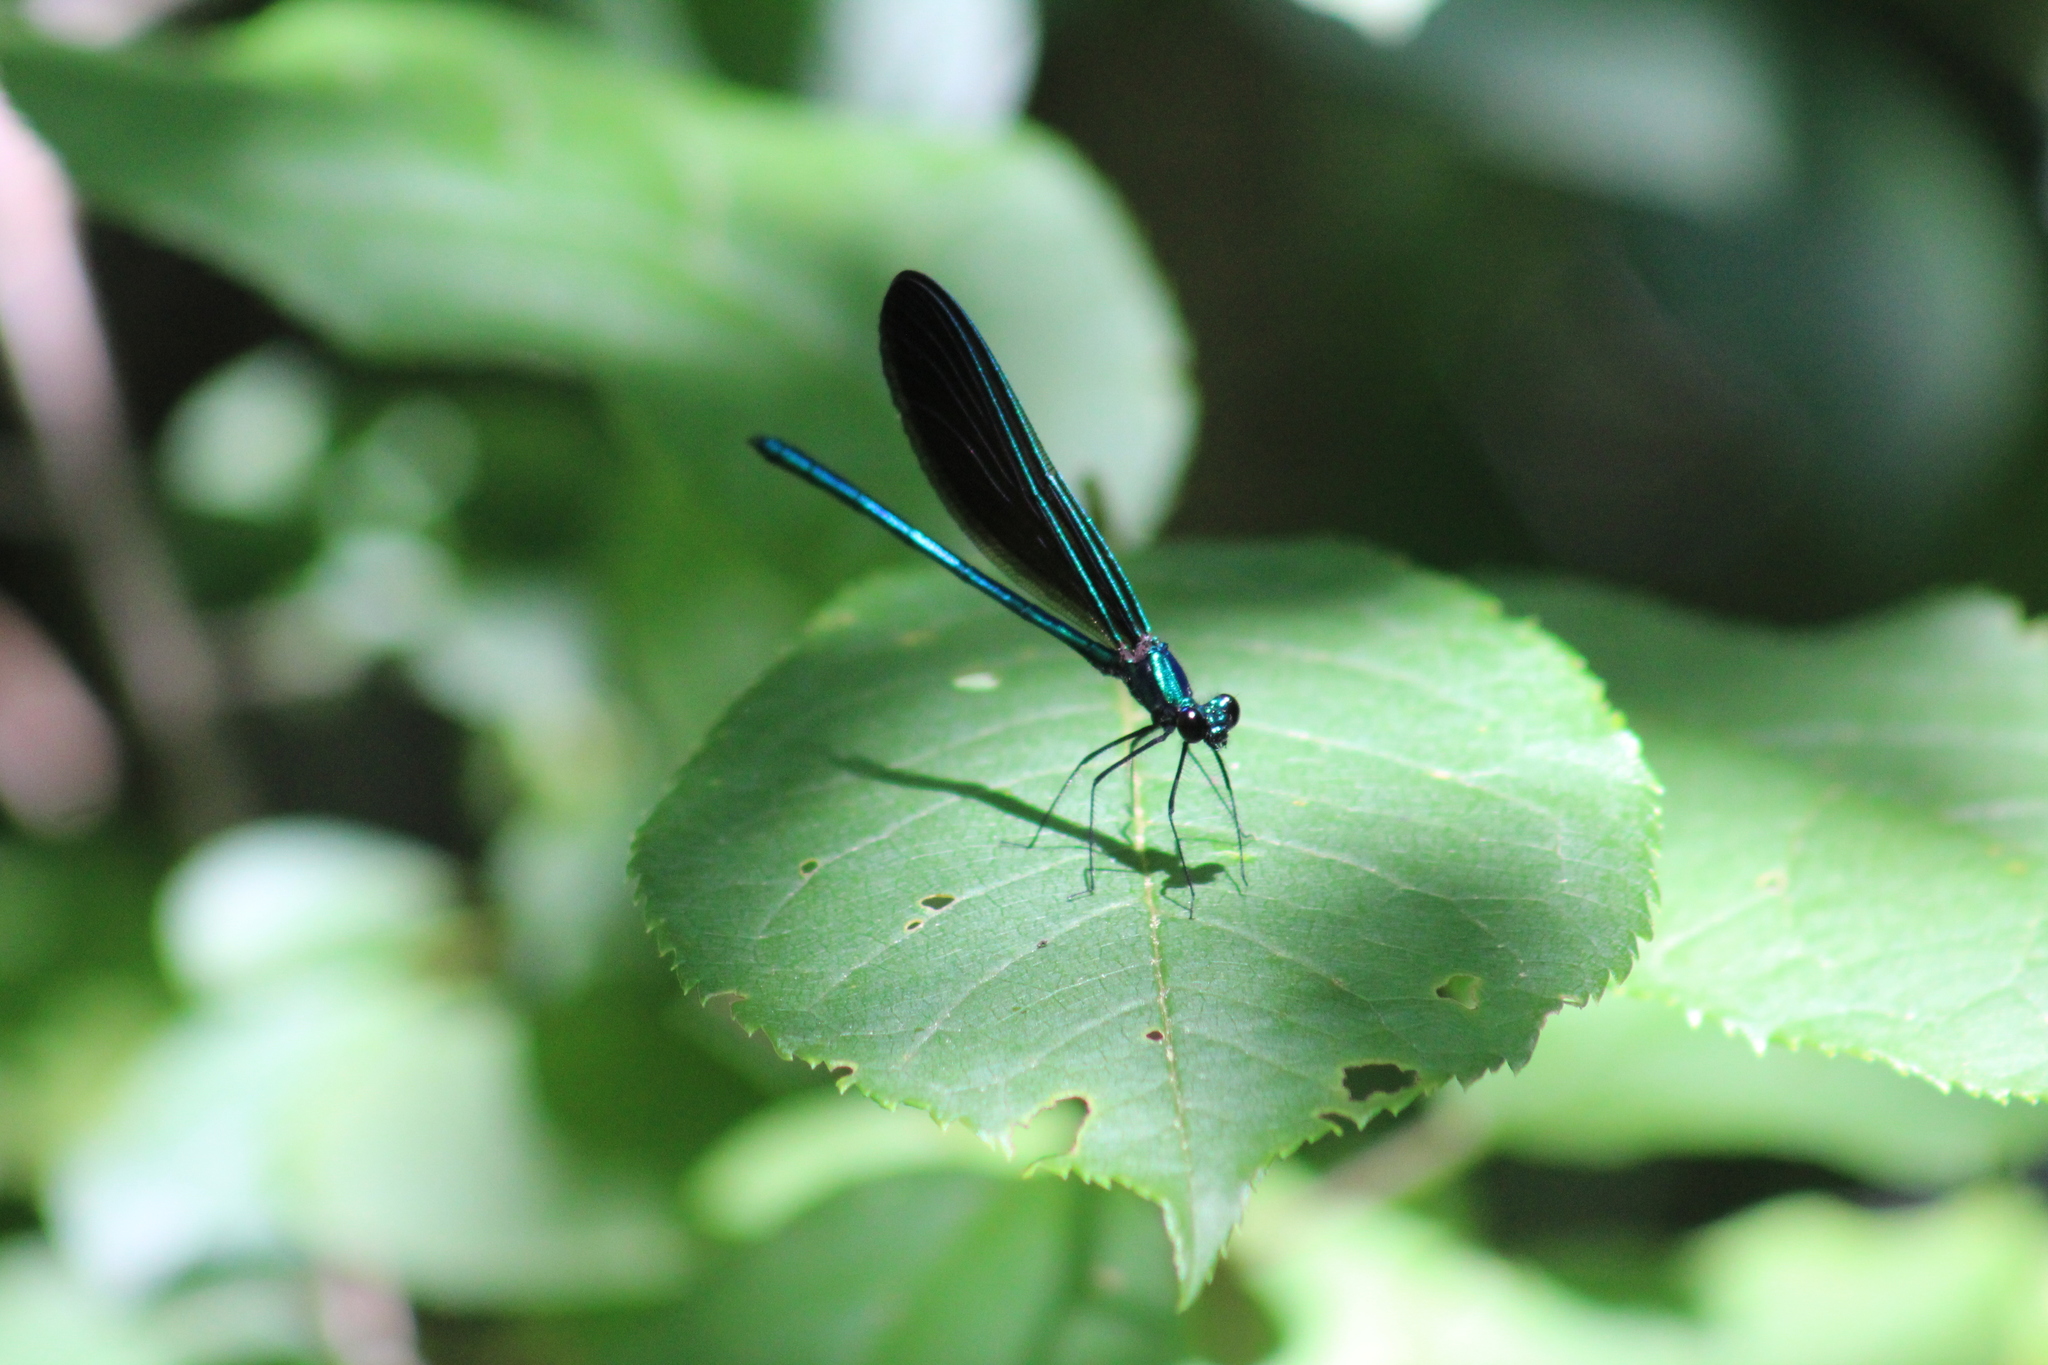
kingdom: Animalia
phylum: Arthropoda
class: Insecta
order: Odonata
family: Calopterygidae
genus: Calopteryx
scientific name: Calopteryx maculata
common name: Ebony jewelwing
